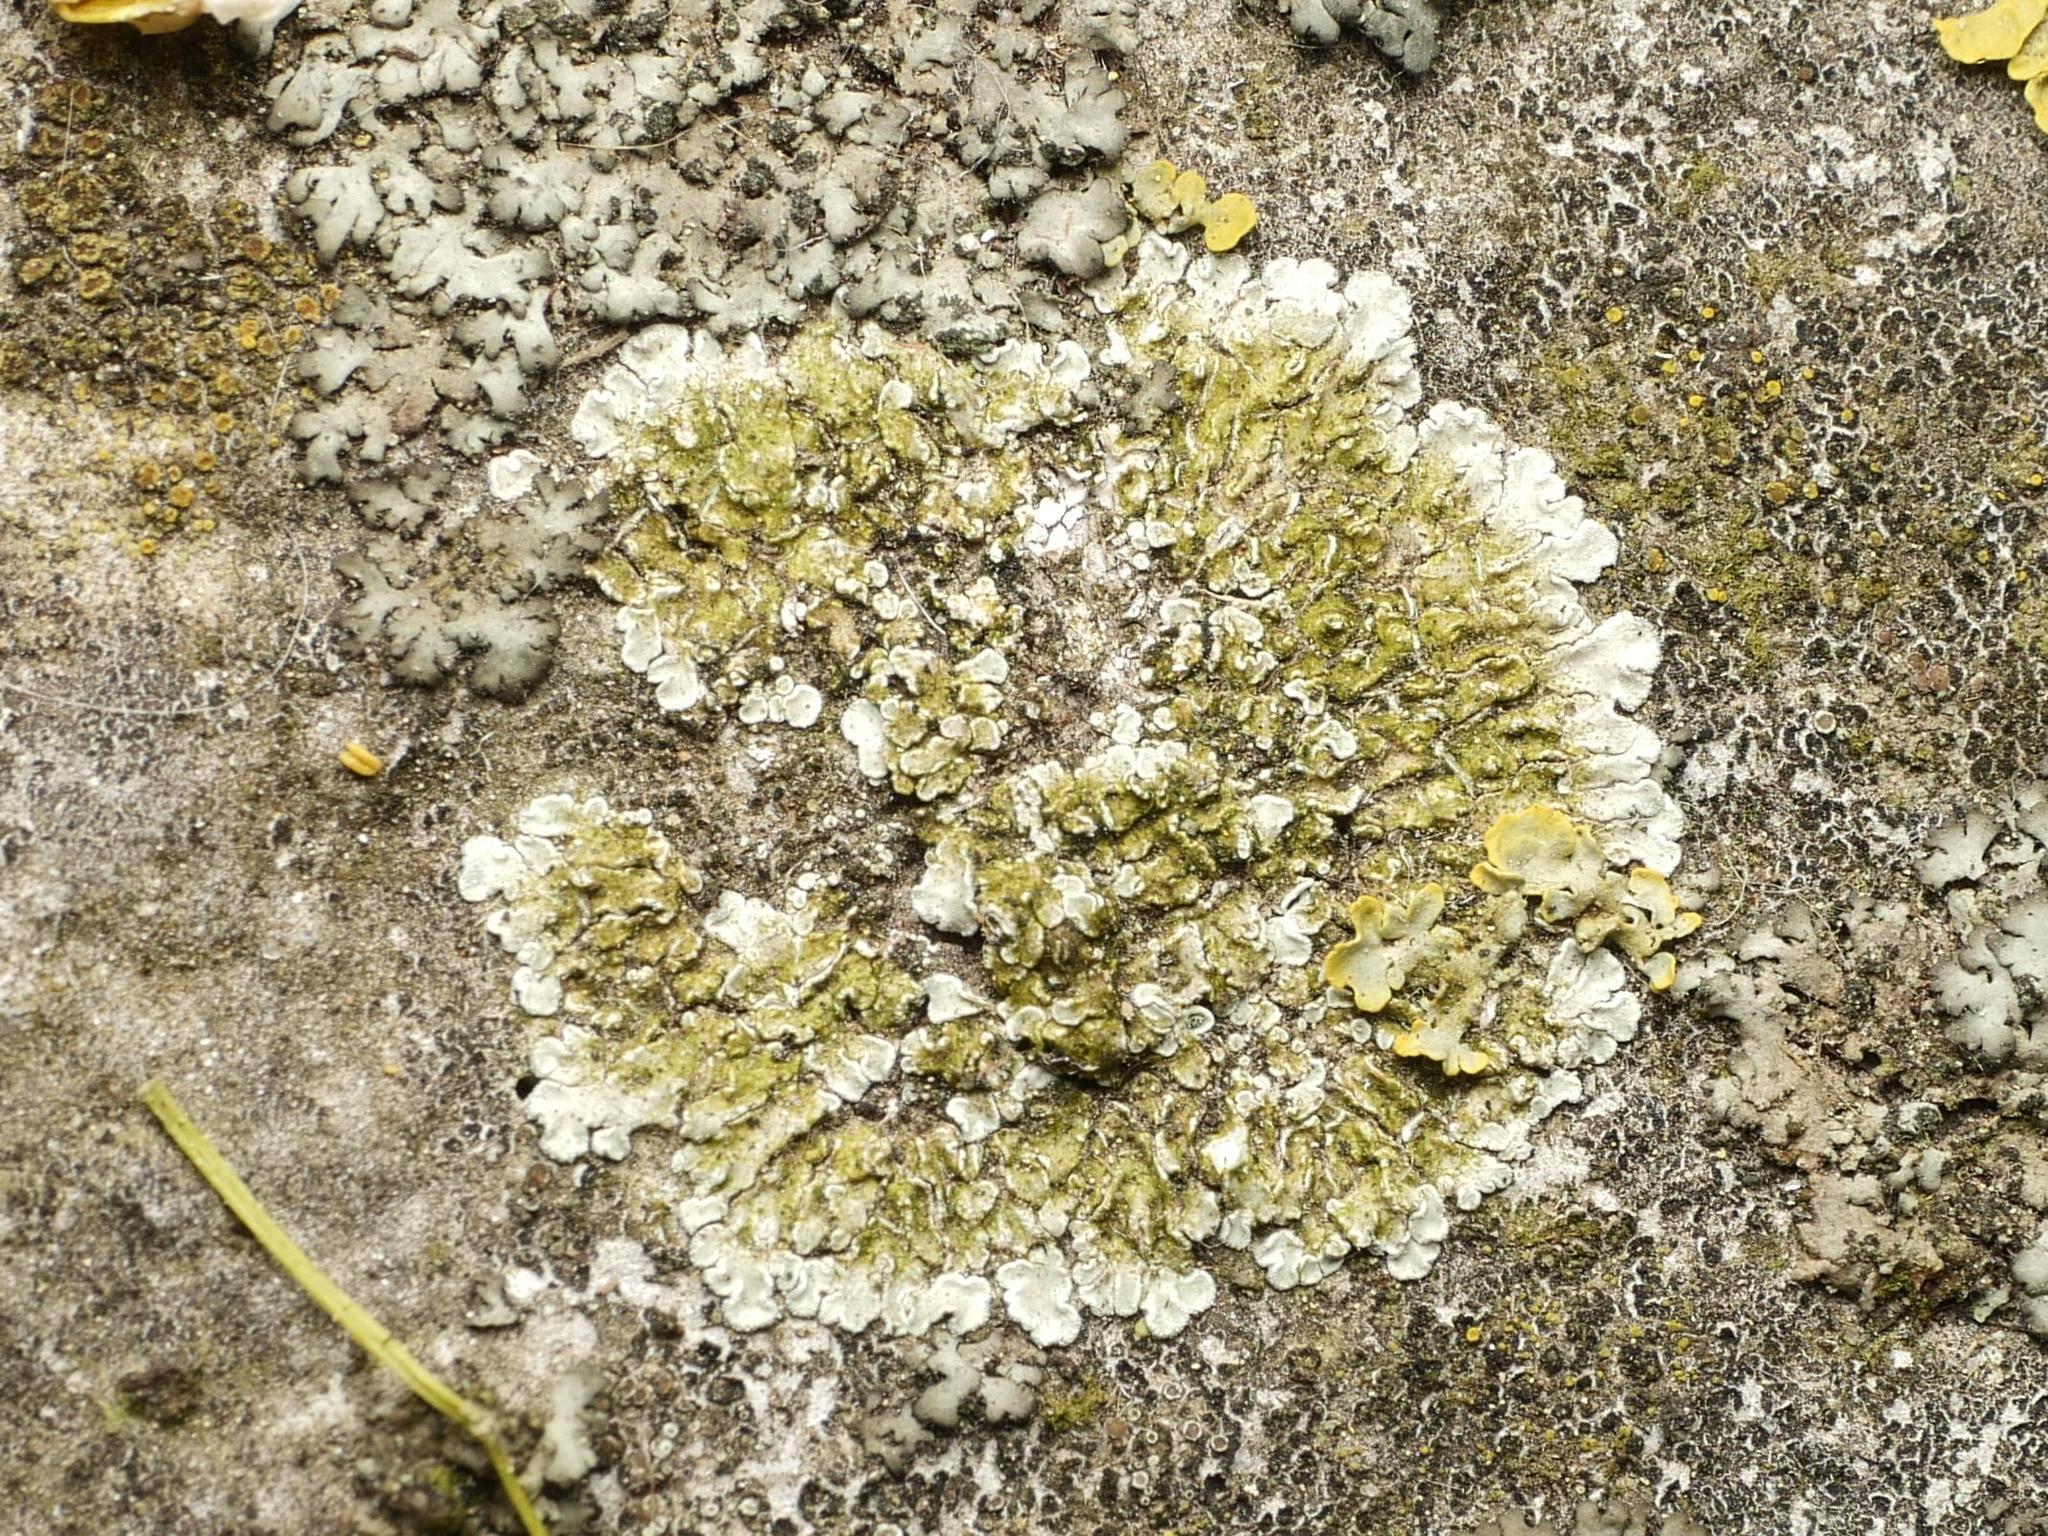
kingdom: Fungi
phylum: Ascomycota
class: Lecanoromycetes
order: Lecanorales
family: Lecanoraceae
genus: Protoparmeliopsis
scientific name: Protoparmeliopsis muralis
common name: Stonewall rim lichen
